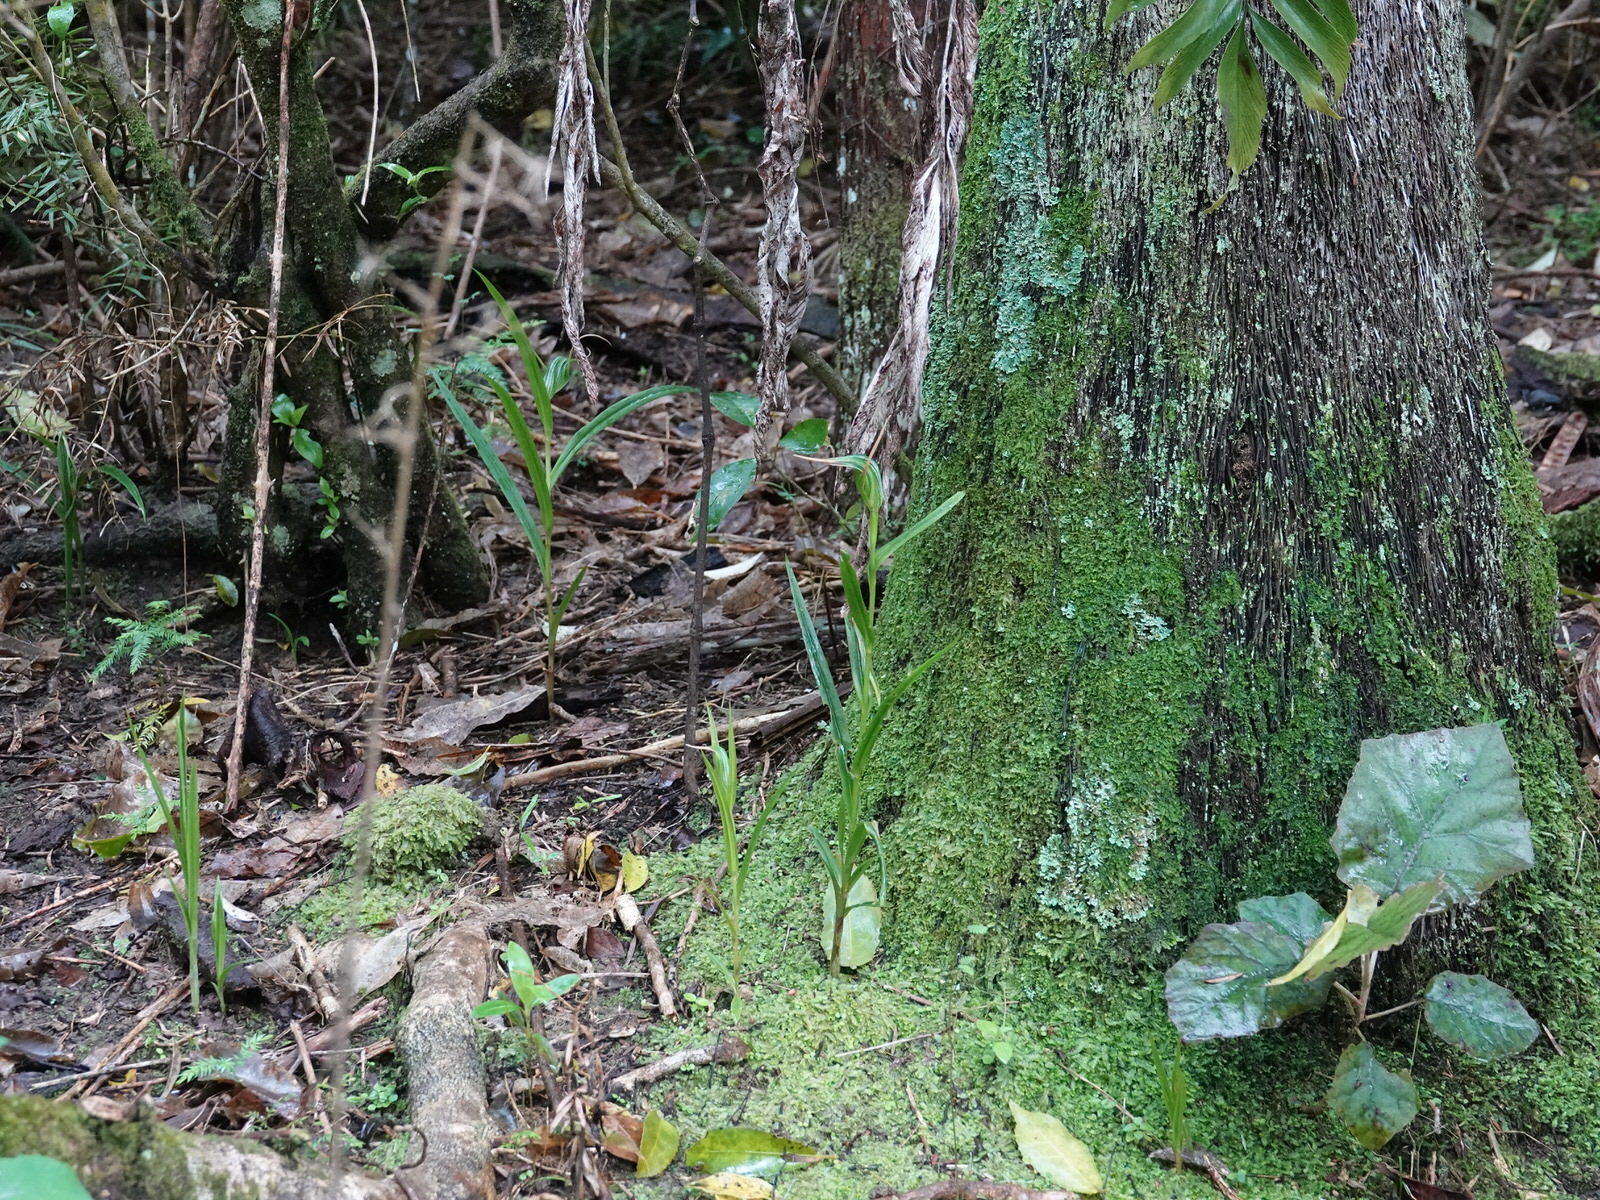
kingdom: Plantae
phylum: Tracheophyta
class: Liliopsida
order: Asparagales
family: Orchidaceae
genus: Pterostylis
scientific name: Pterostylis banksii
